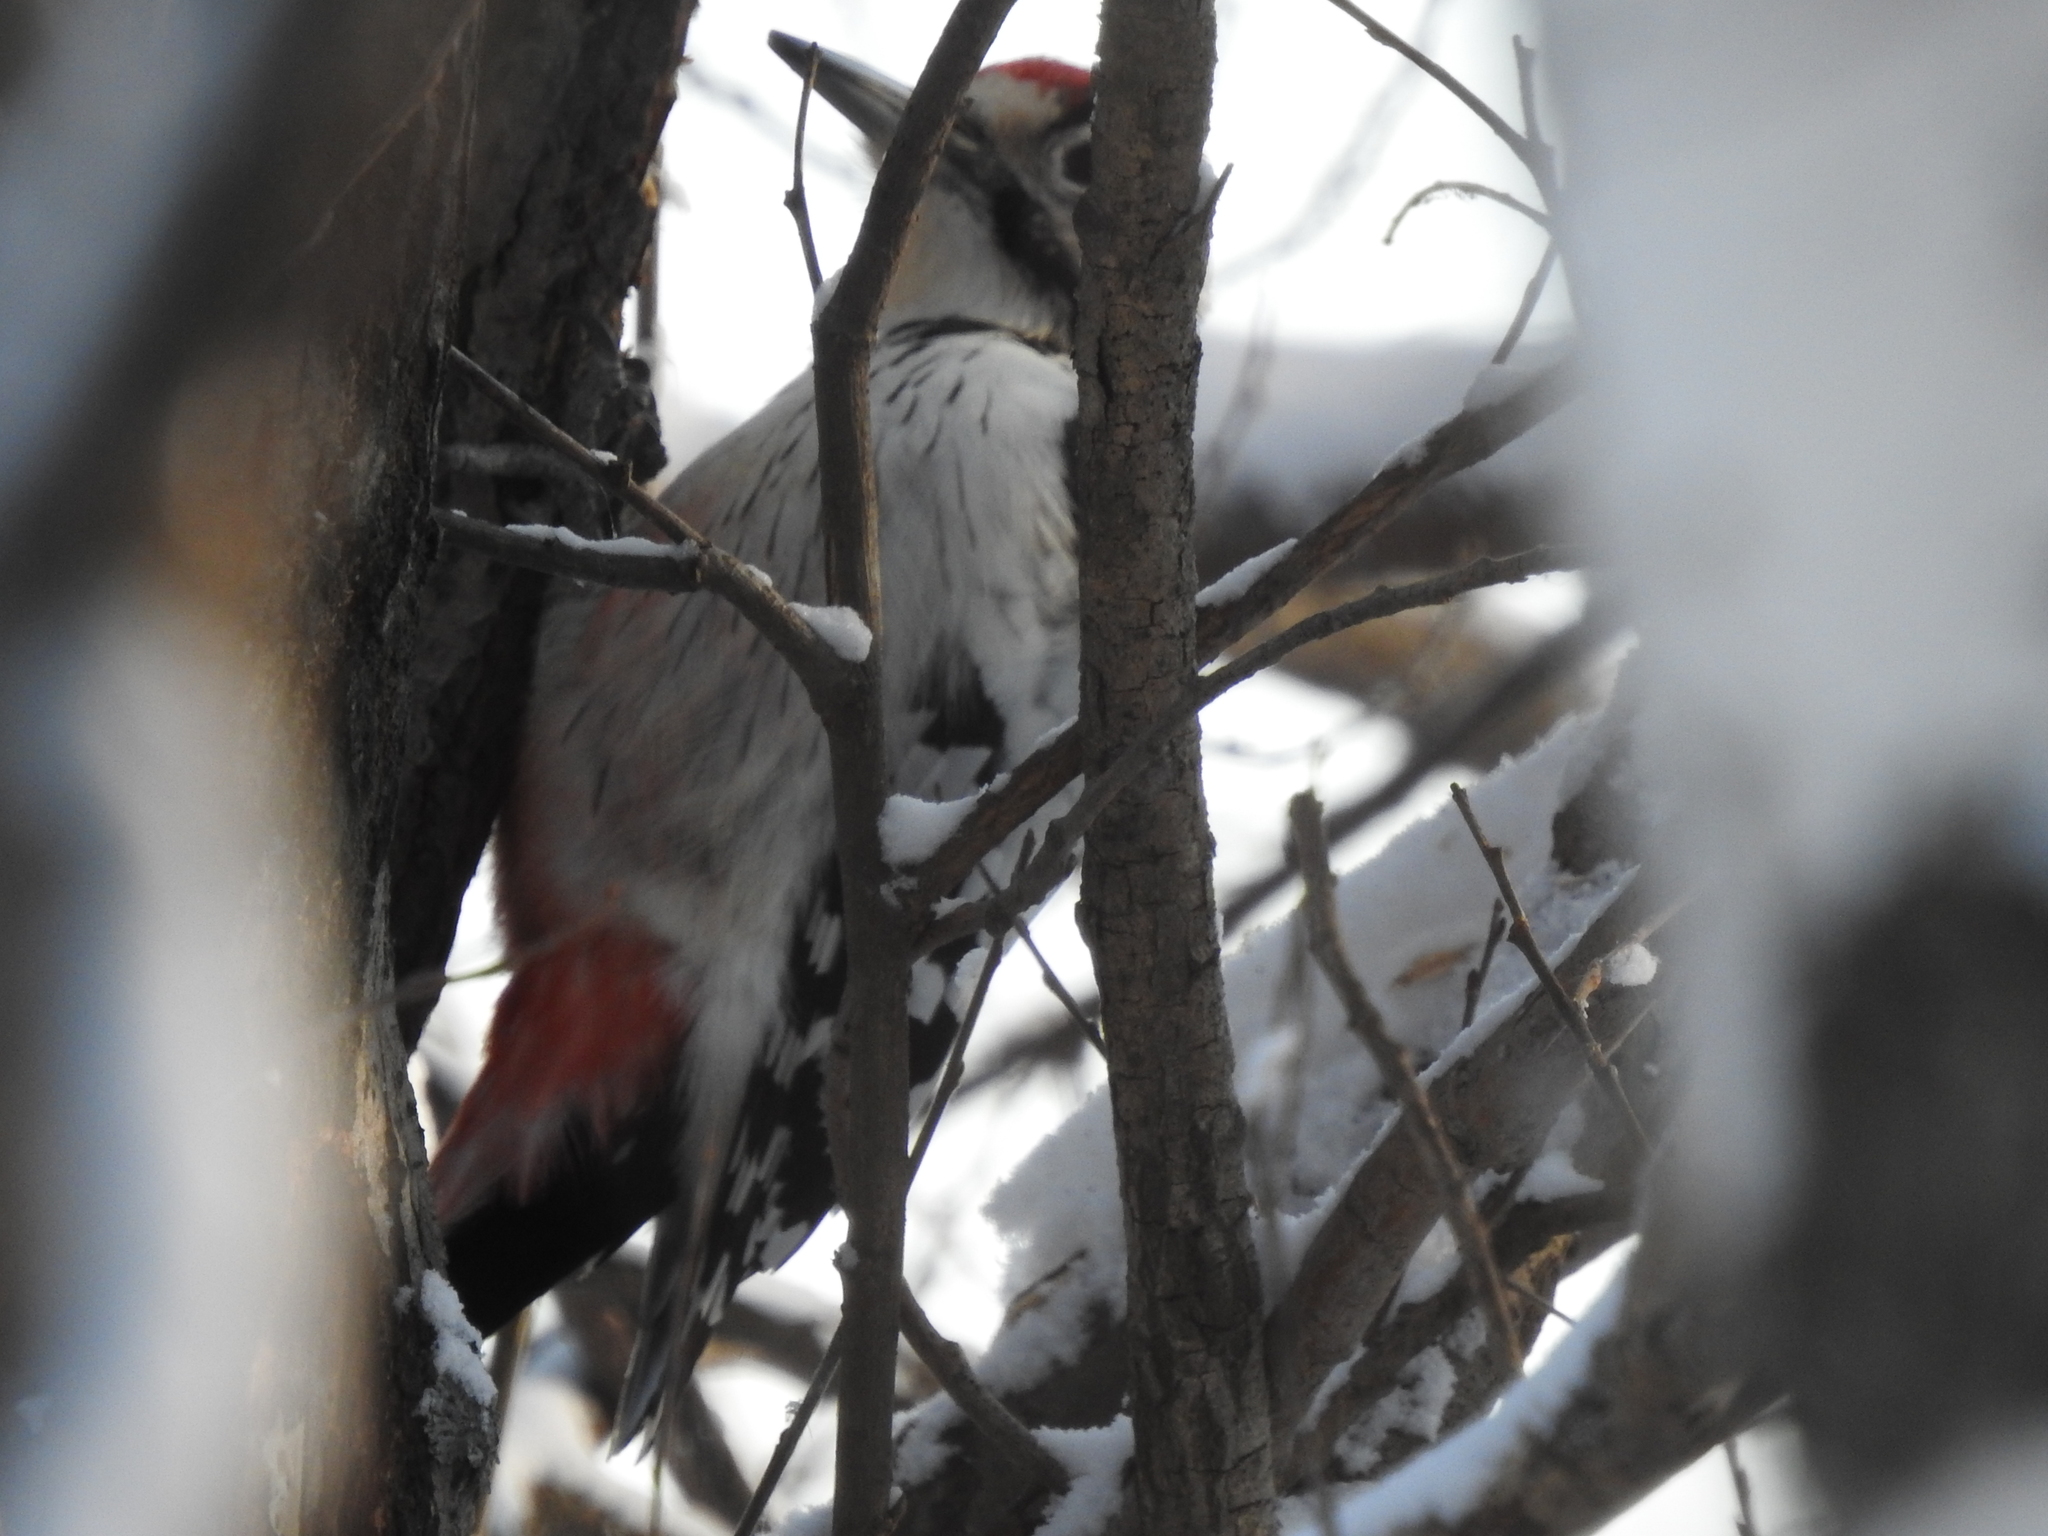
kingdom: Animalia
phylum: Chordata
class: Aves
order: Piciformes
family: Picidae
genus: Dendrocopos
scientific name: Dendrocopos leucotos
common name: White-backed woodpecker
